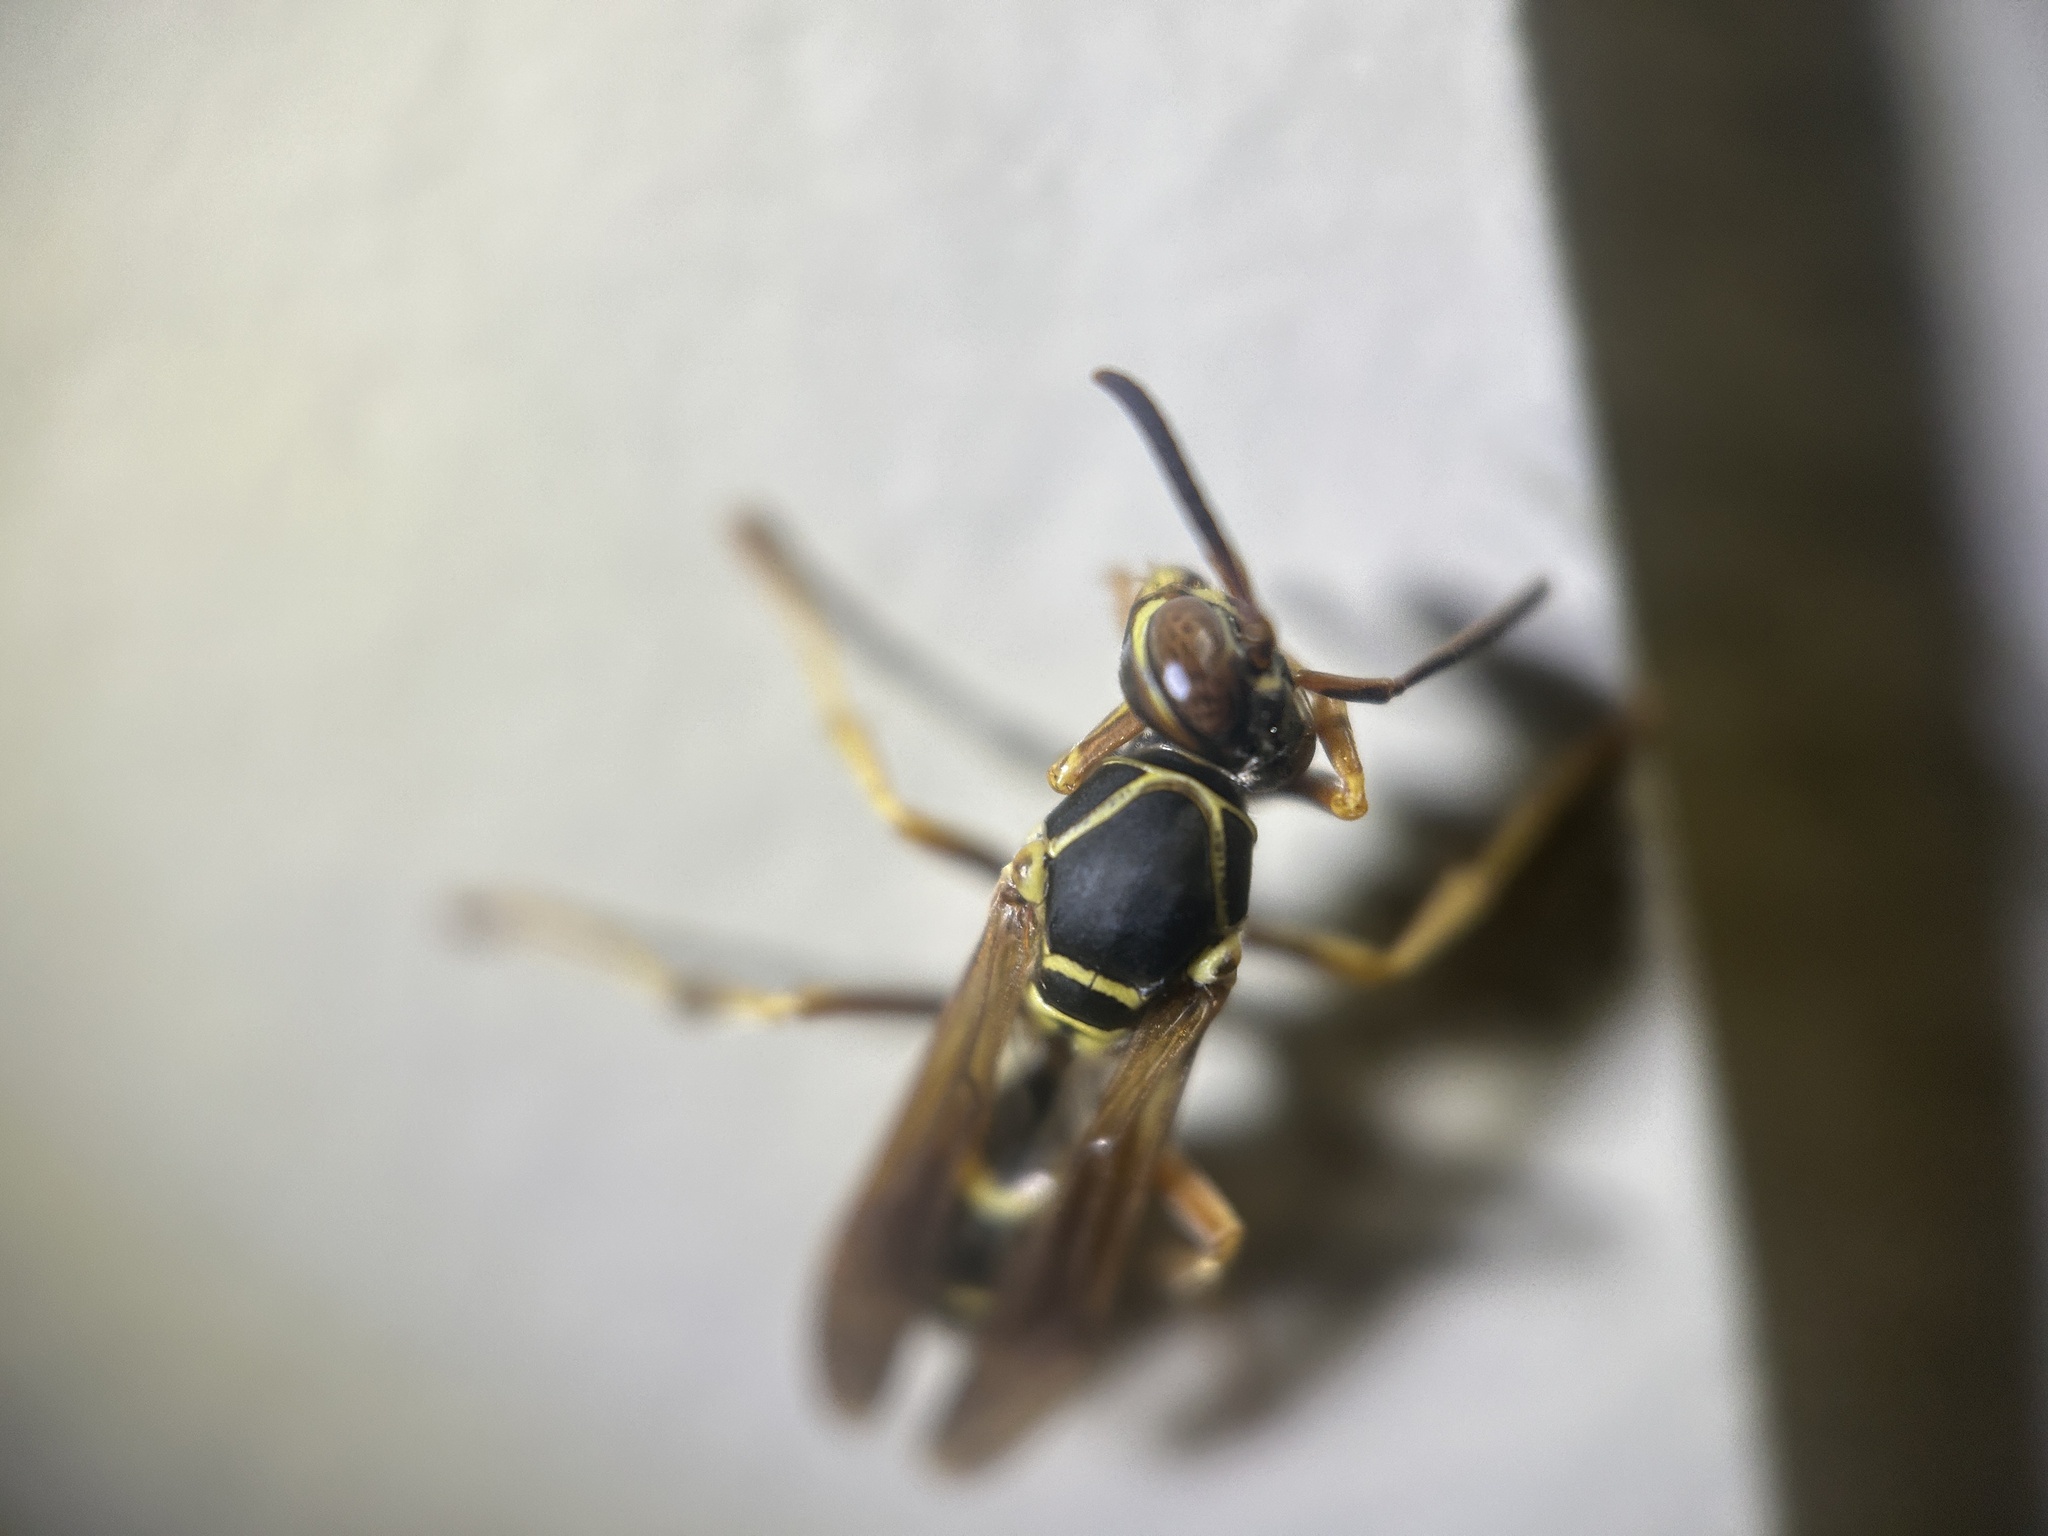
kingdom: Animalia
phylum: Arthropoda
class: Insecta
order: Hymenoptera
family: Eumenidae
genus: Polistes
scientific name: Polistes fuscatus
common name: Dark paper wasp
